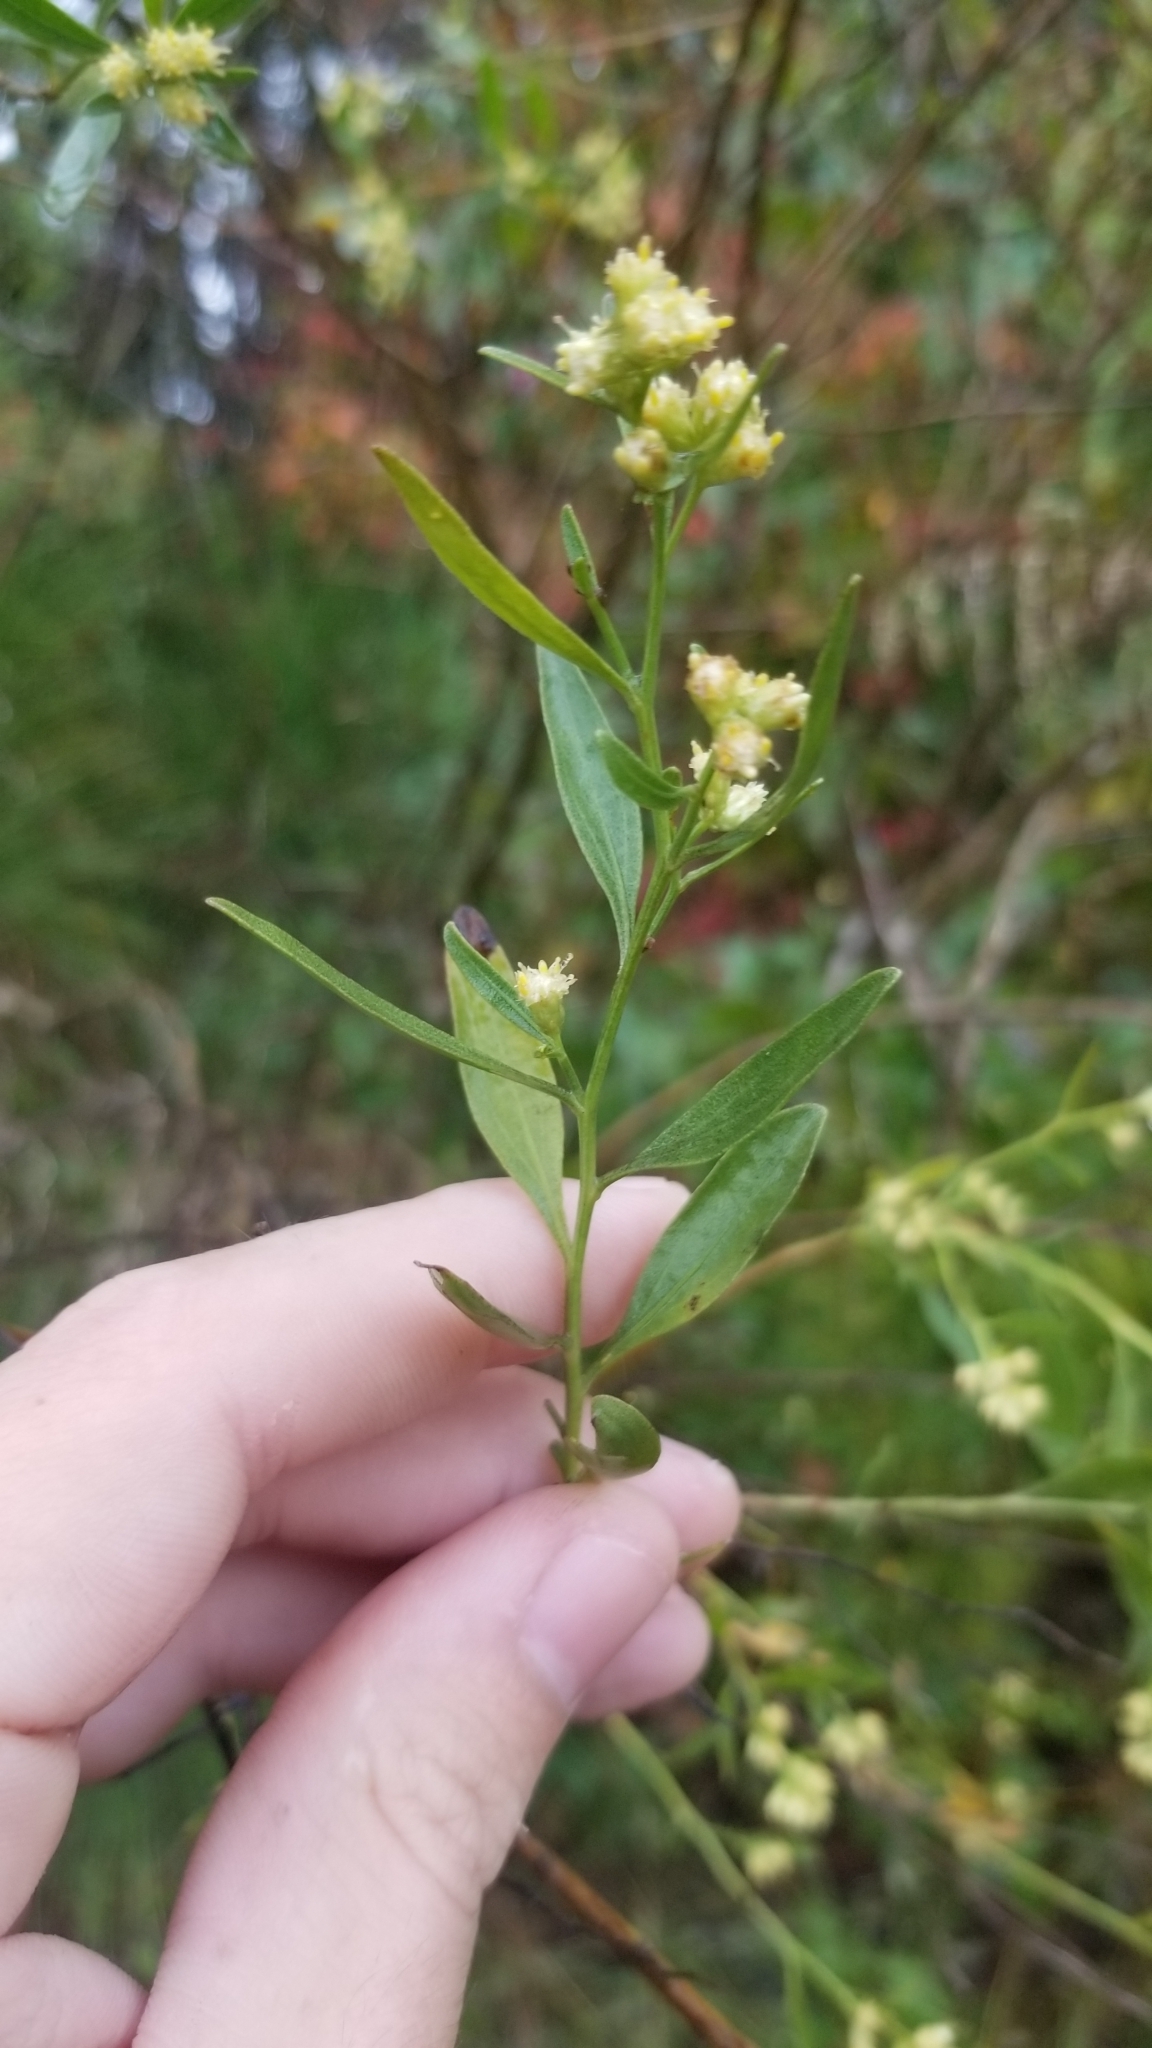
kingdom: Plantae
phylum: Tracheophyta
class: Magnoliopsida
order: Asterales
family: Asteraceae
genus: Baccharis
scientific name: Baccharis halimifolia
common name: Eastern baccharis
